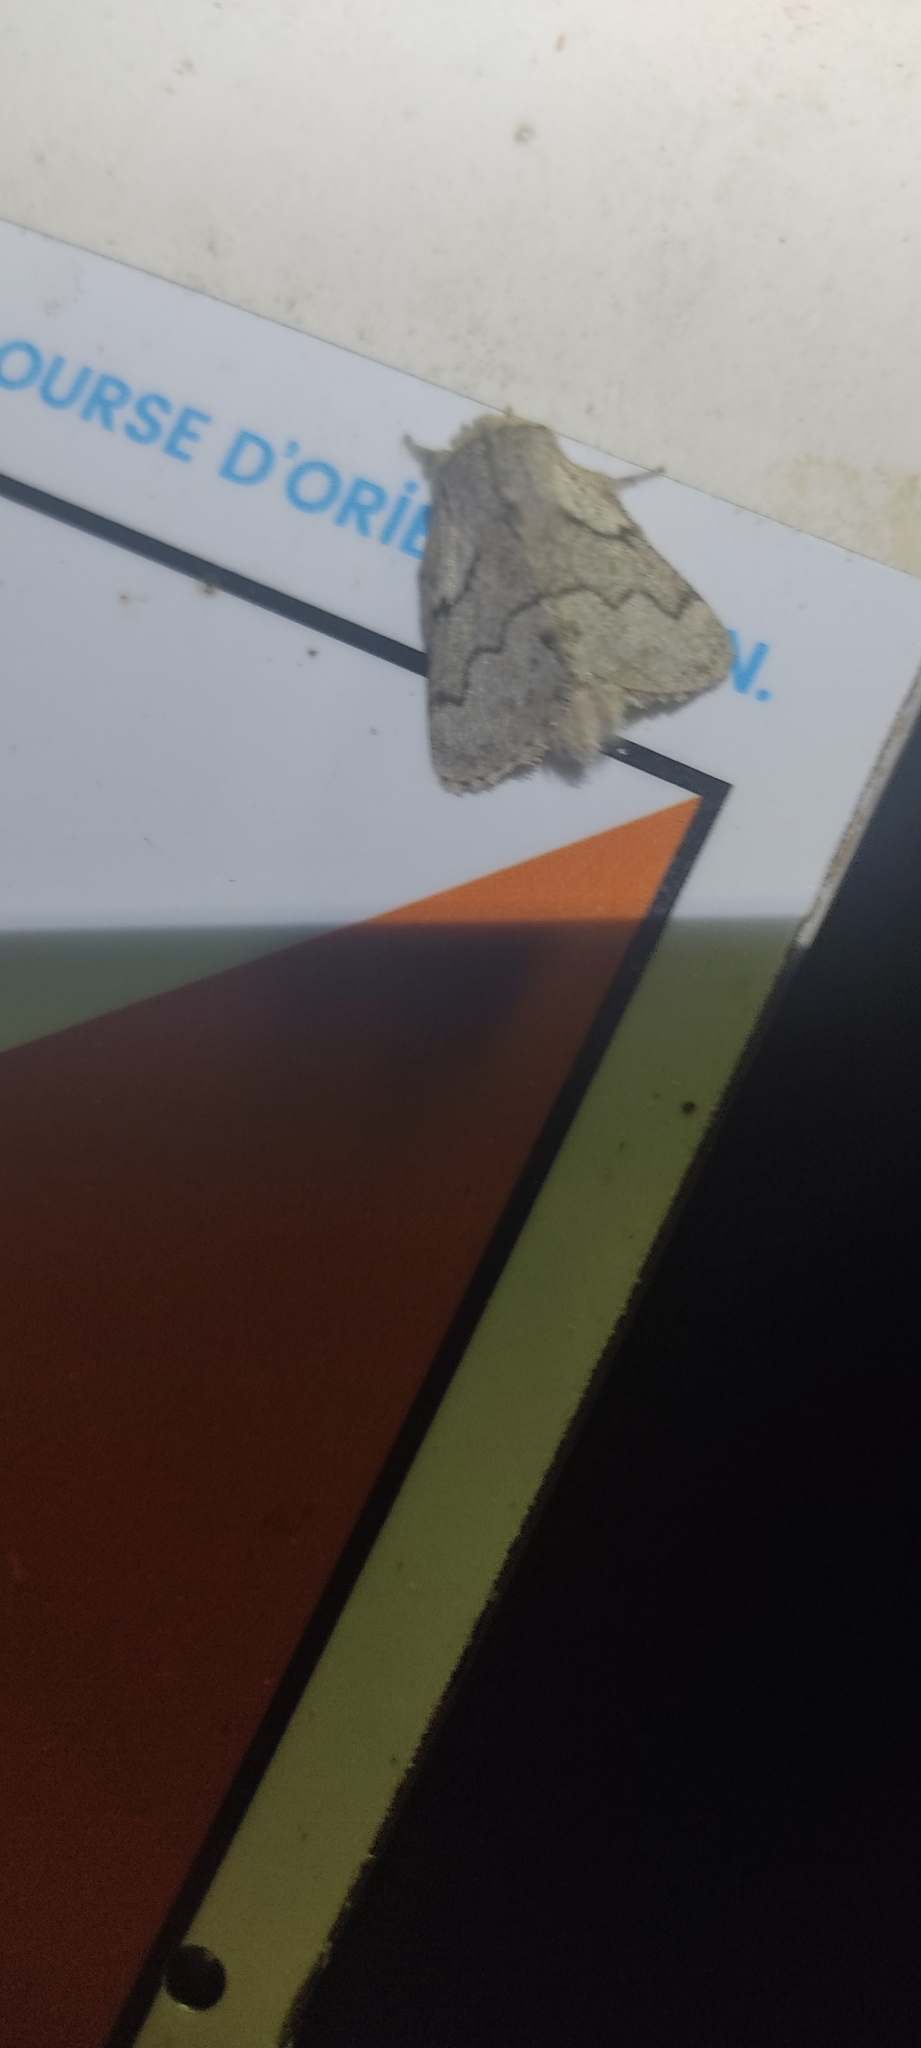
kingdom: Animalia
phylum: Arthropoda
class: Insecta
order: Lepidoptera
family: Lasiocampidae
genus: Trichiura
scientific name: Trichiura crataegi
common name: Pale eggar
